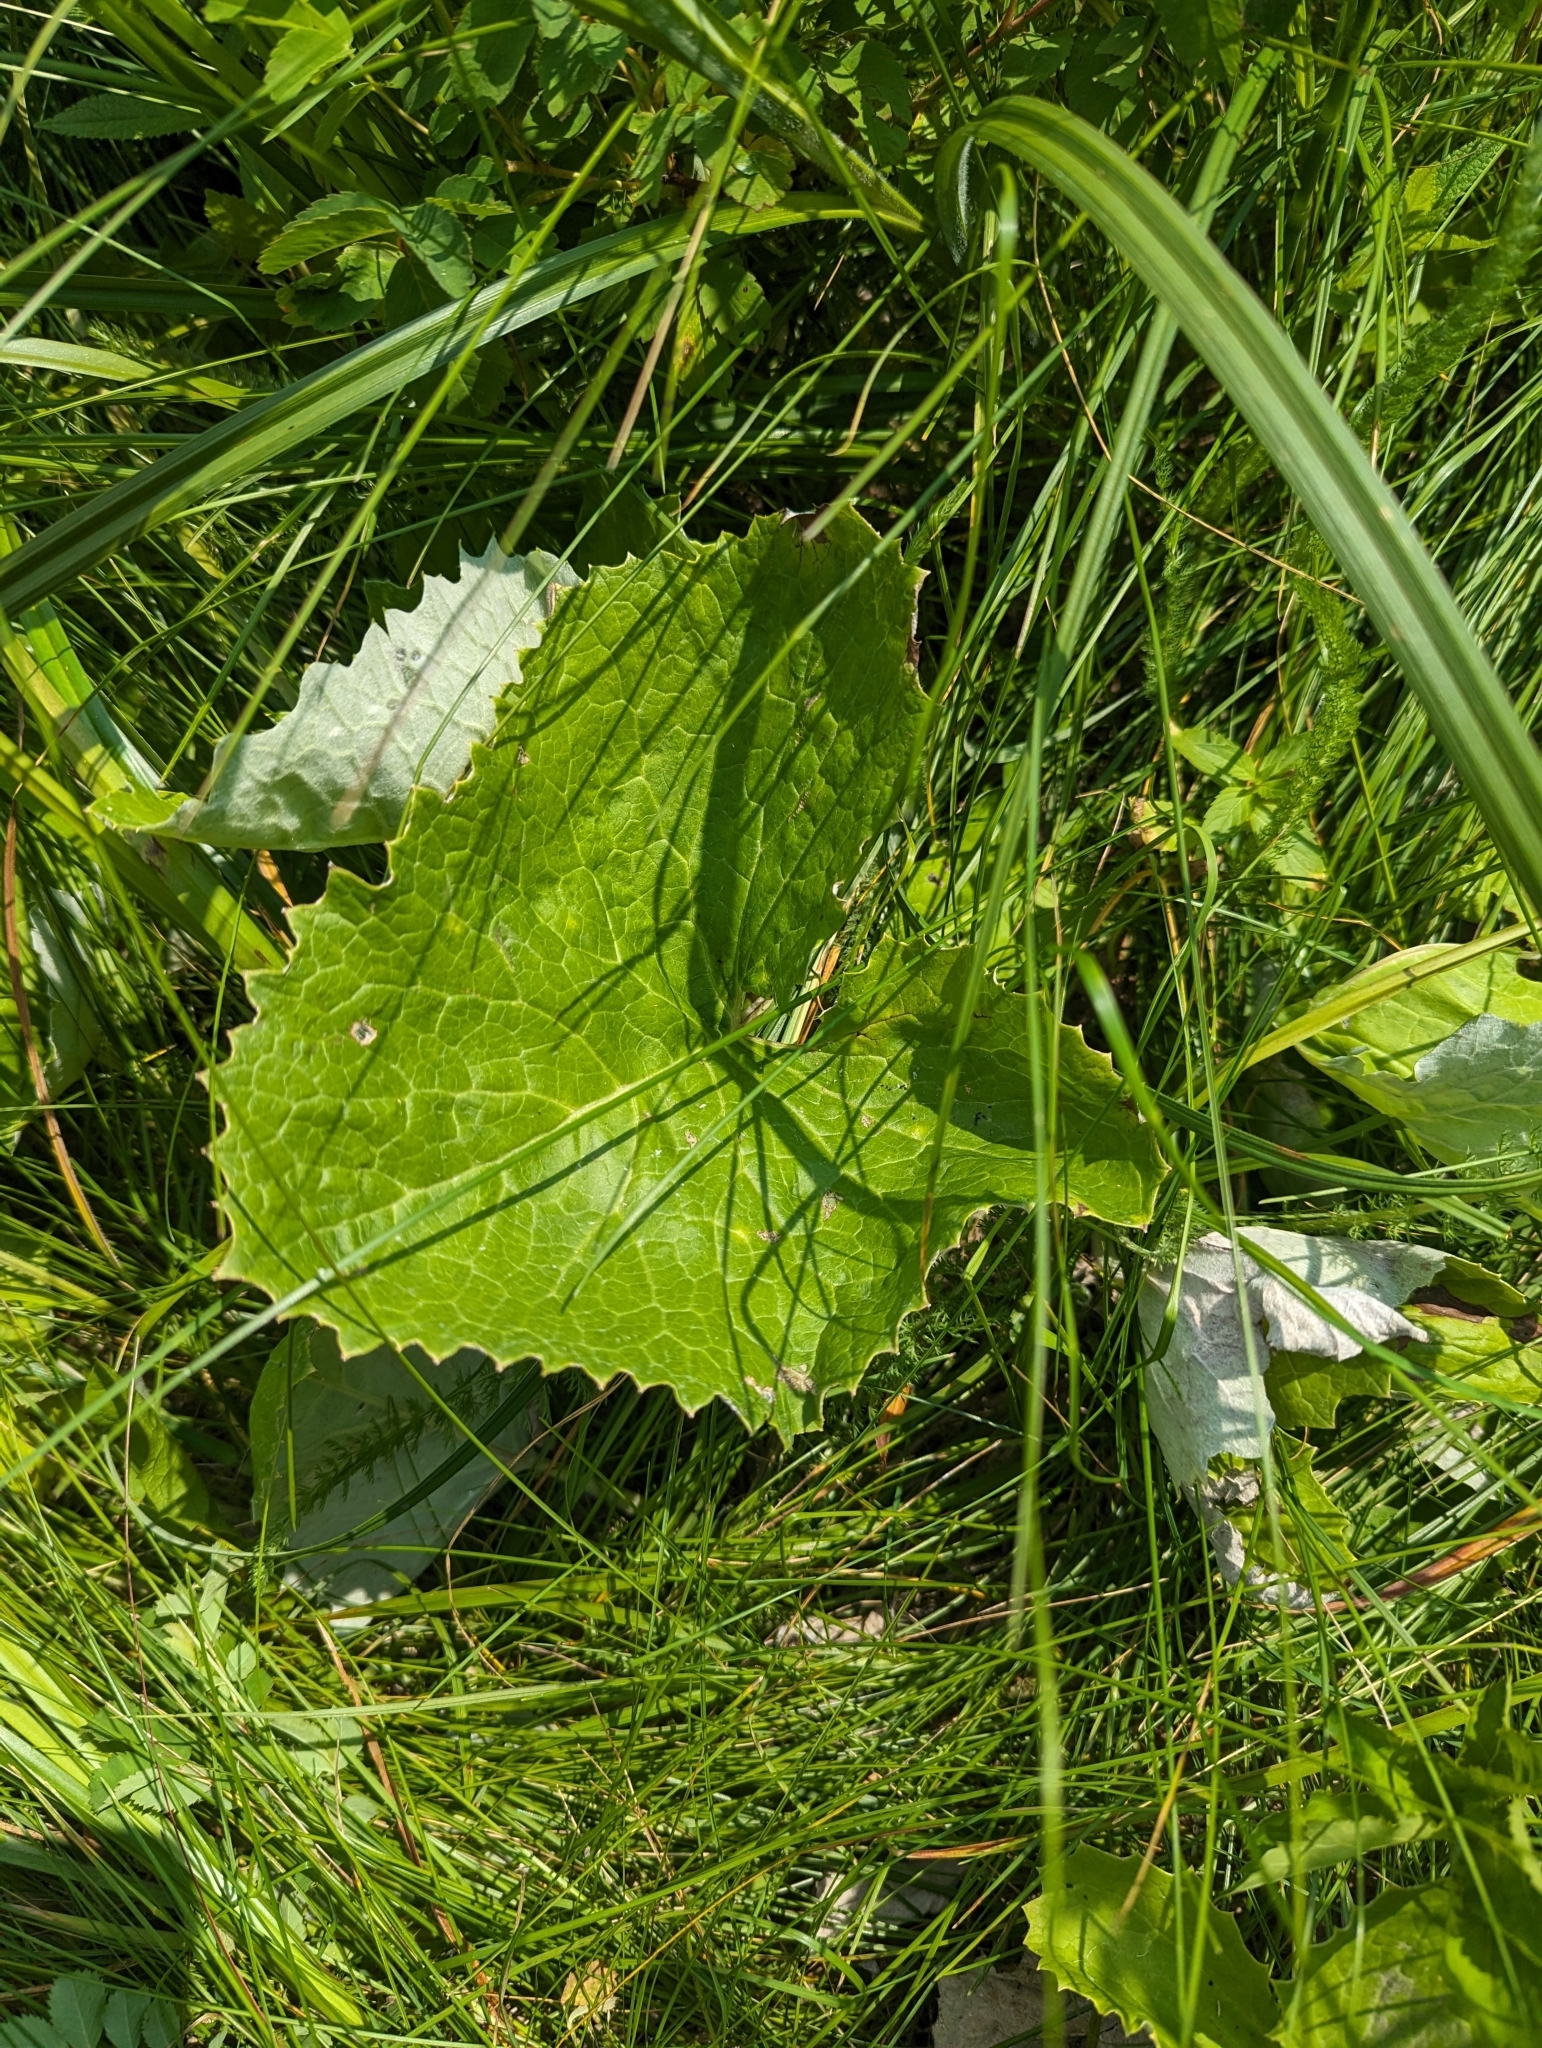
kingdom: Plantae
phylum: Tracheophyta
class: Magnoliopsida
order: Asterales
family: Asteraceae
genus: Petasites
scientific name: Petasites frigidus
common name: Arctic butterbur
